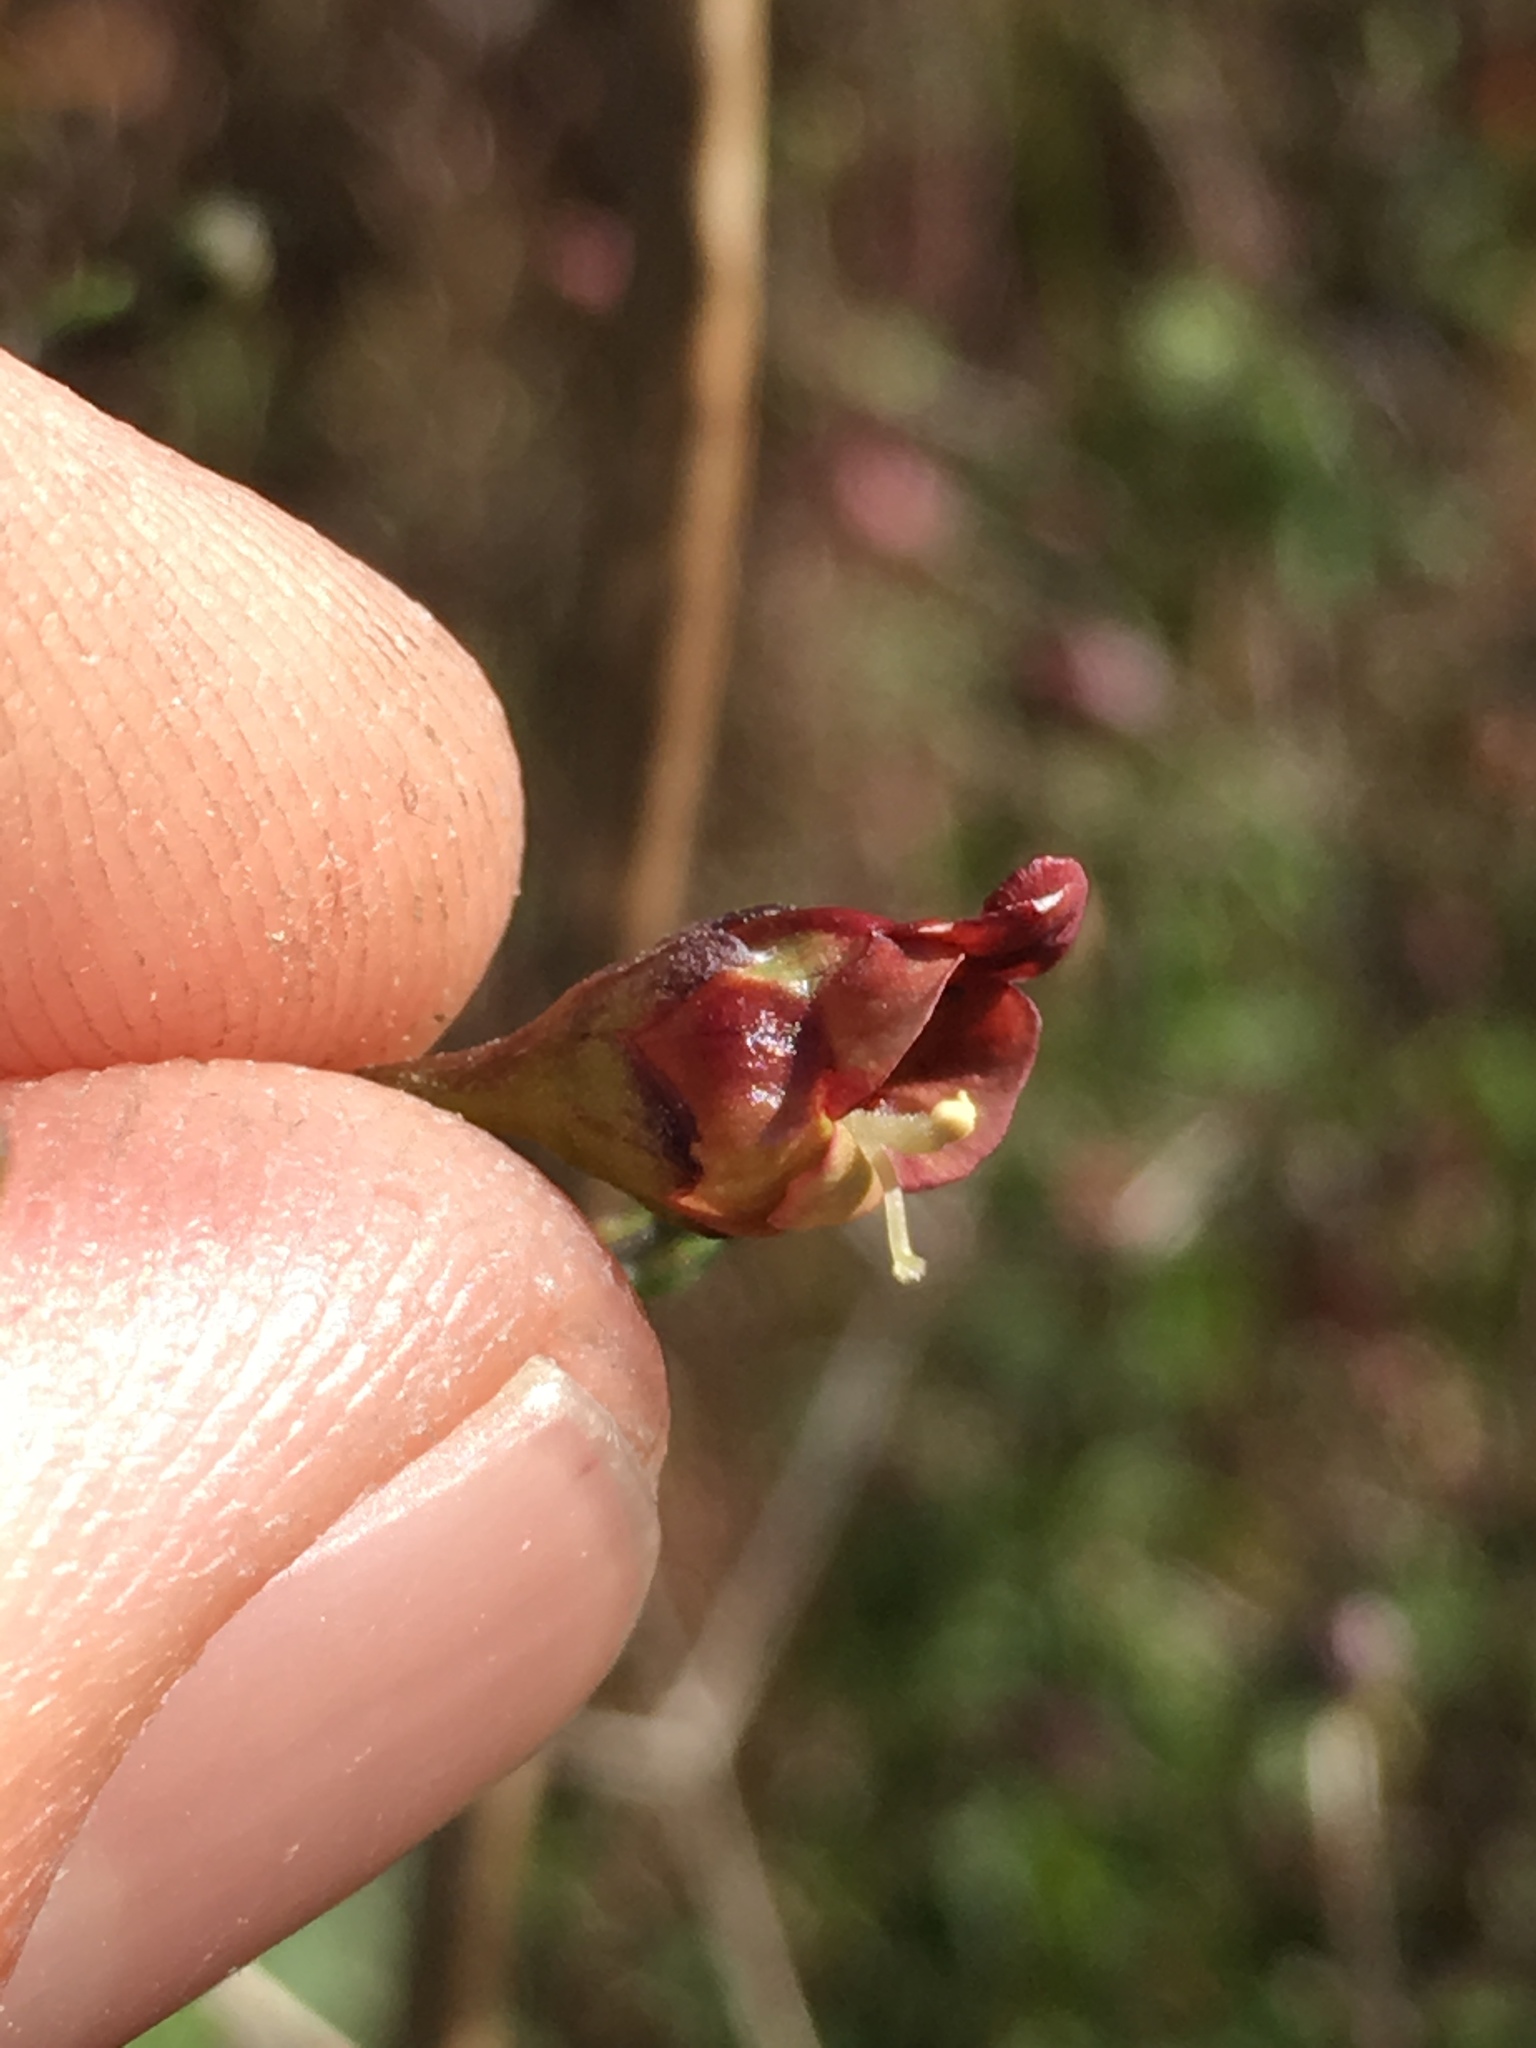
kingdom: Plantae
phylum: Tracheophyta
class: Magnoliopsida
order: Lamiales
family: Scrophulariaceae
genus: Scrophularia
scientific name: Scrophularia californica
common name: California figwort
